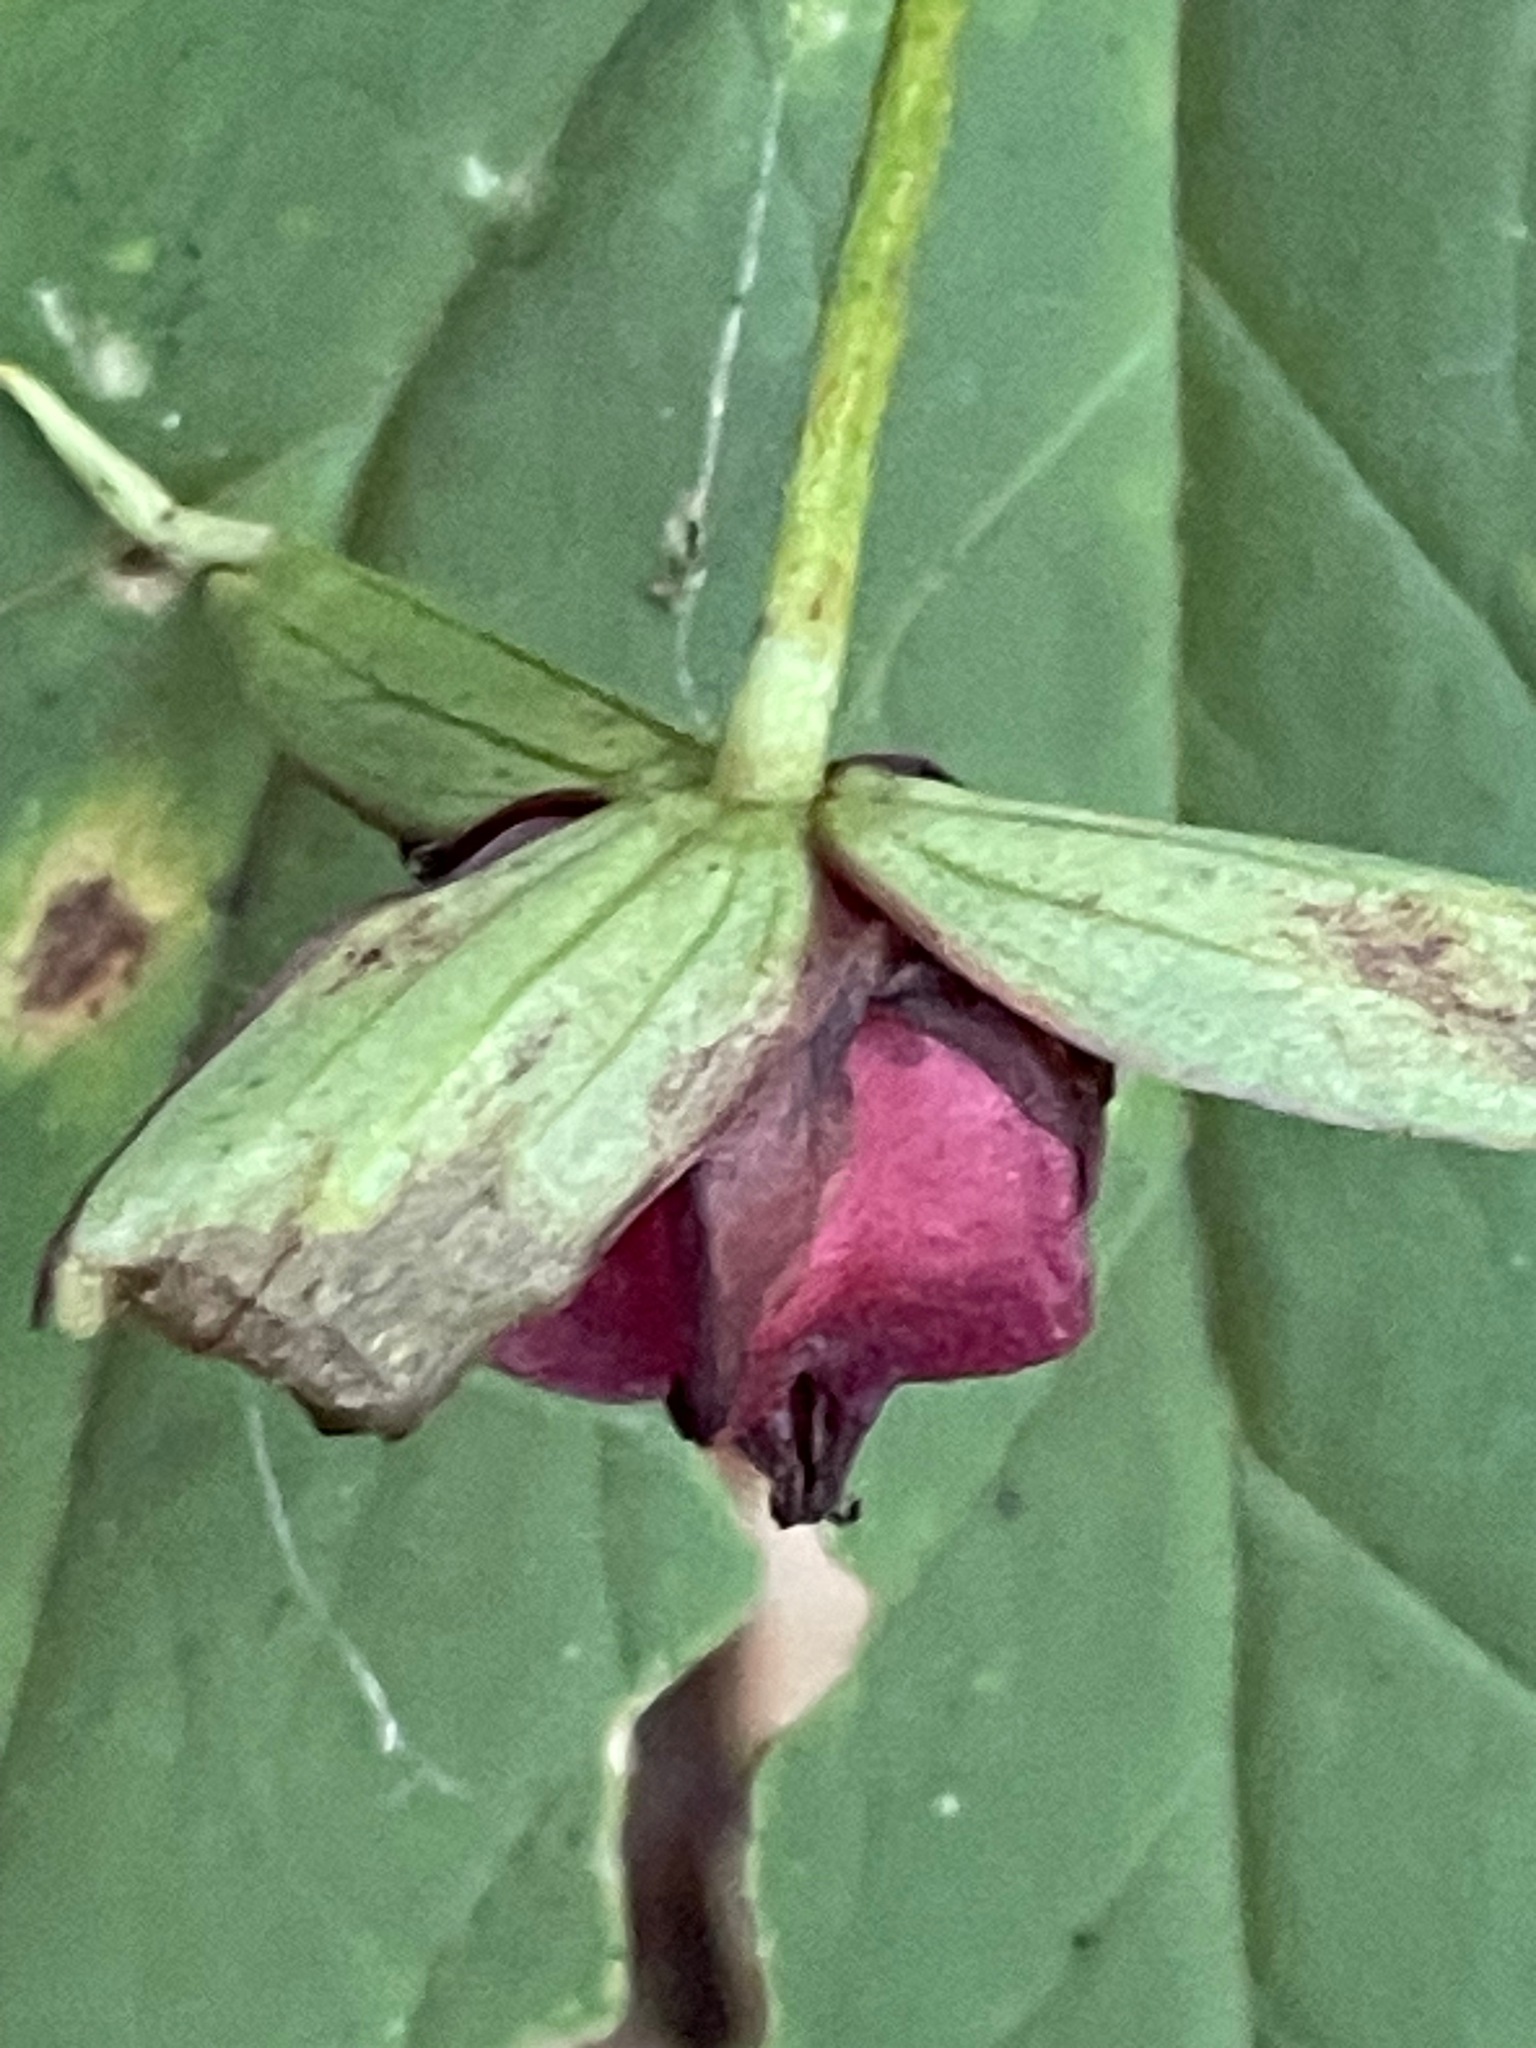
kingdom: Plantae
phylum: Tracheophyta
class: Liliopsida
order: Liliales
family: Melanthiaceae
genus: Trillium
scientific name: Trillium erectum
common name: Purple trillium
